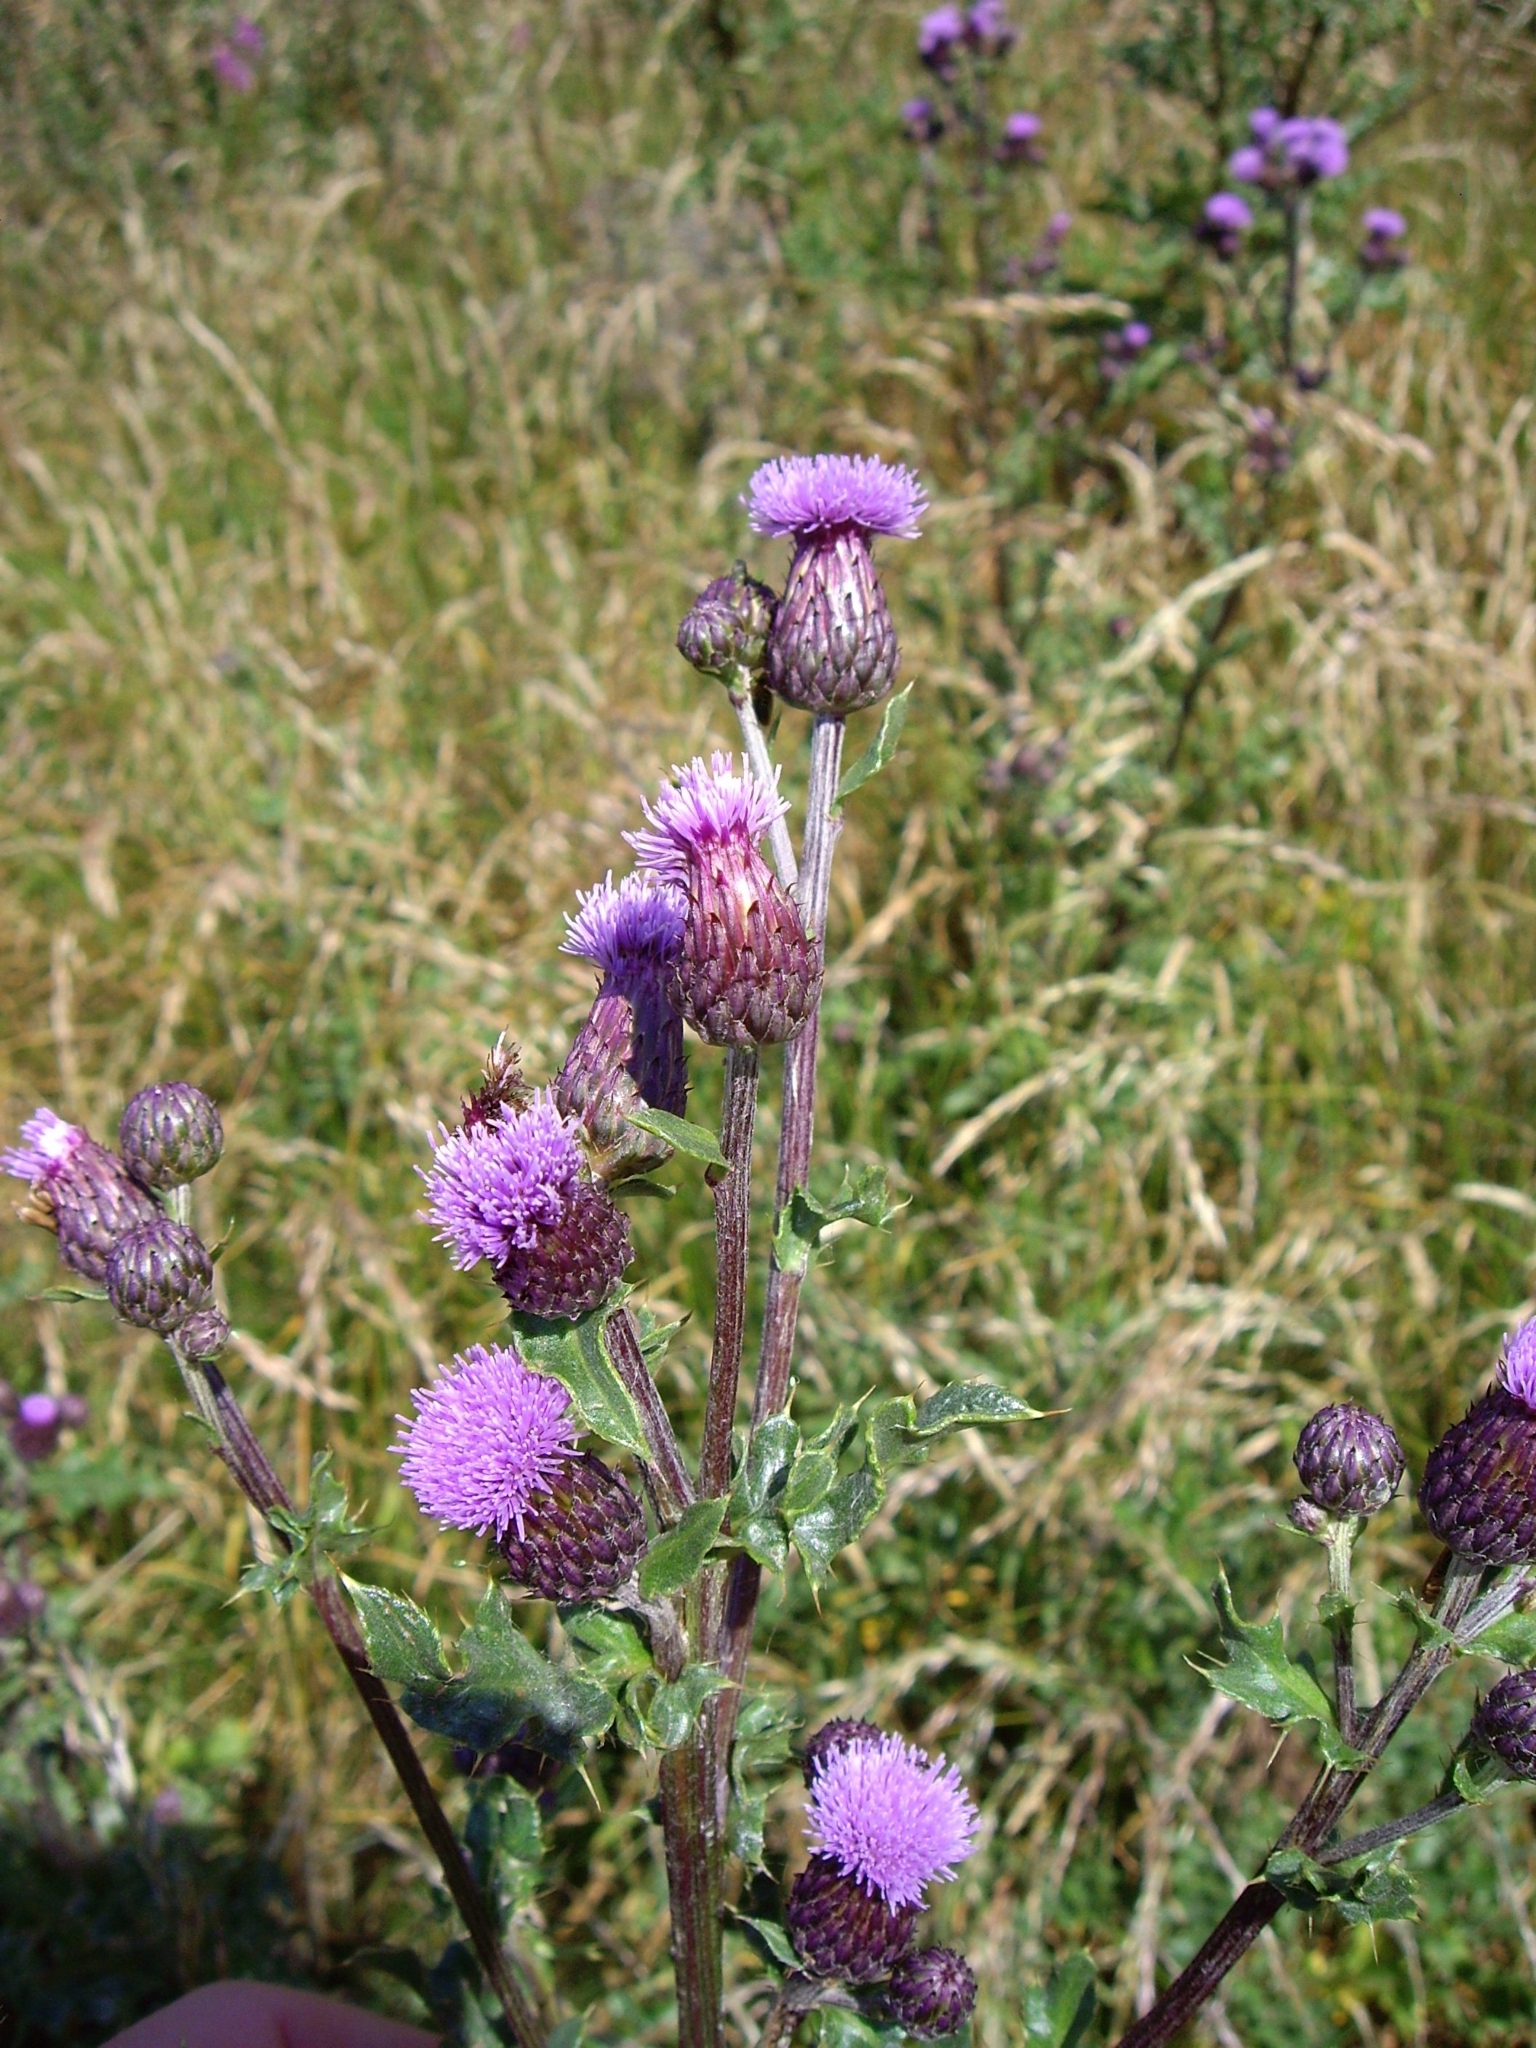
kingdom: Plantae
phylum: Tracheophyta
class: Magnoliopsida
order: Asterales
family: Asteraceae
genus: Cirsium
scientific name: Cirsium arvense
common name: Creeping thistle
